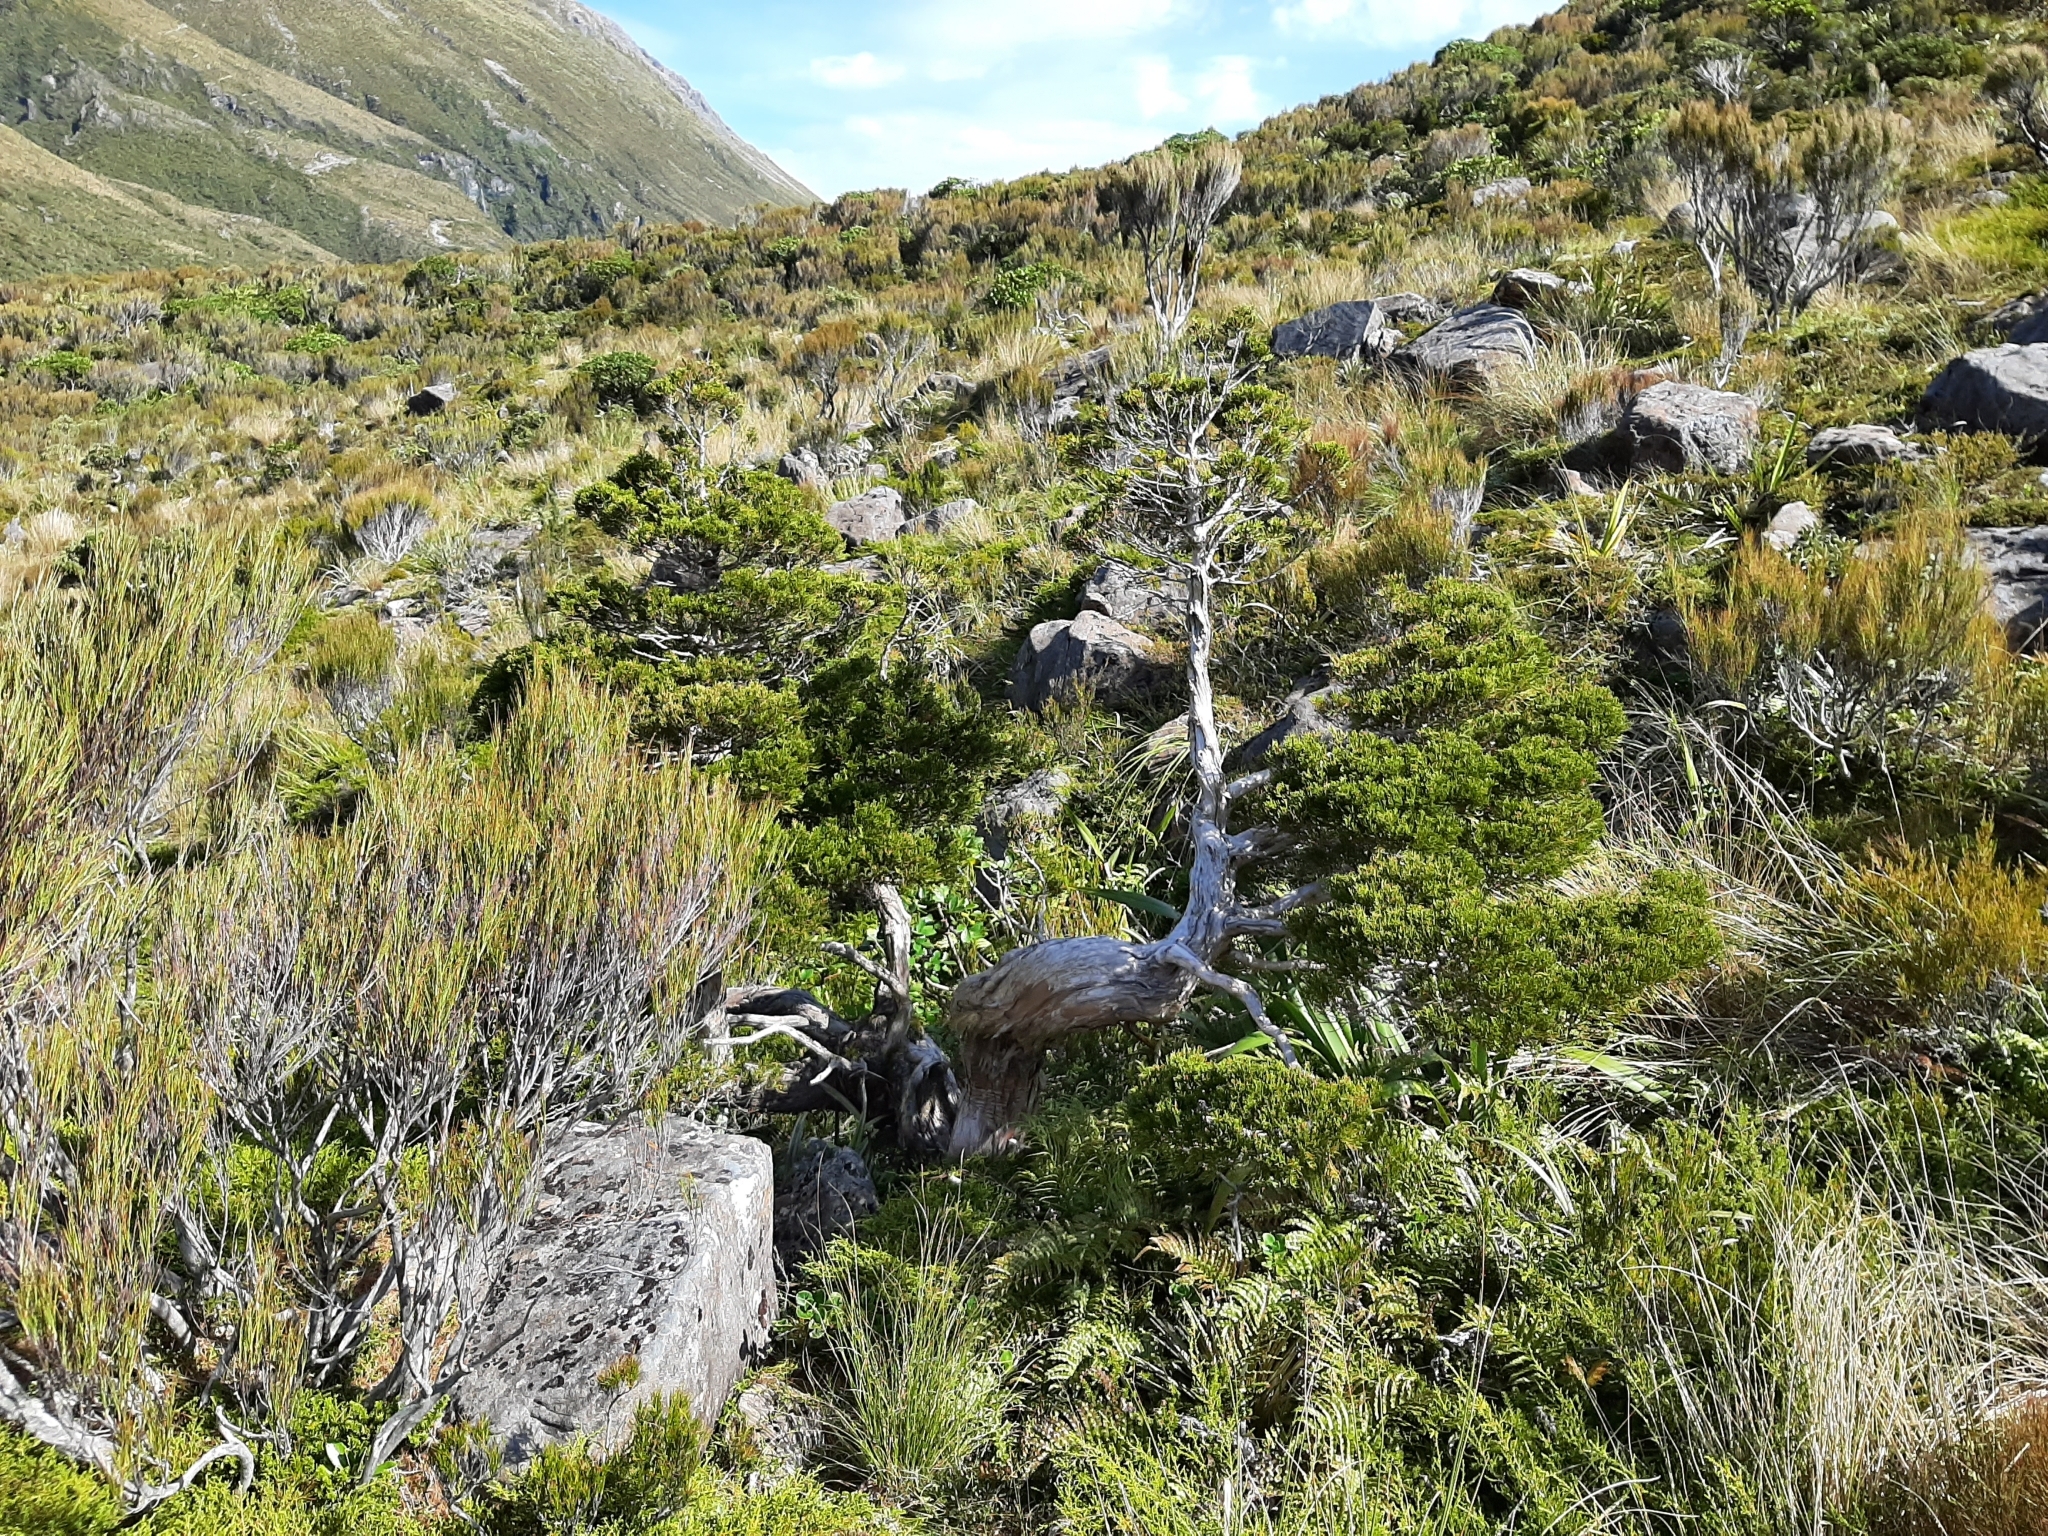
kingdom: Plantae
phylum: Tracheophyta
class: Pinopsida
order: Pinales
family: Cupressaceae
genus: Libocedrus
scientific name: Libocedrus bidwillii
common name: Cedar
